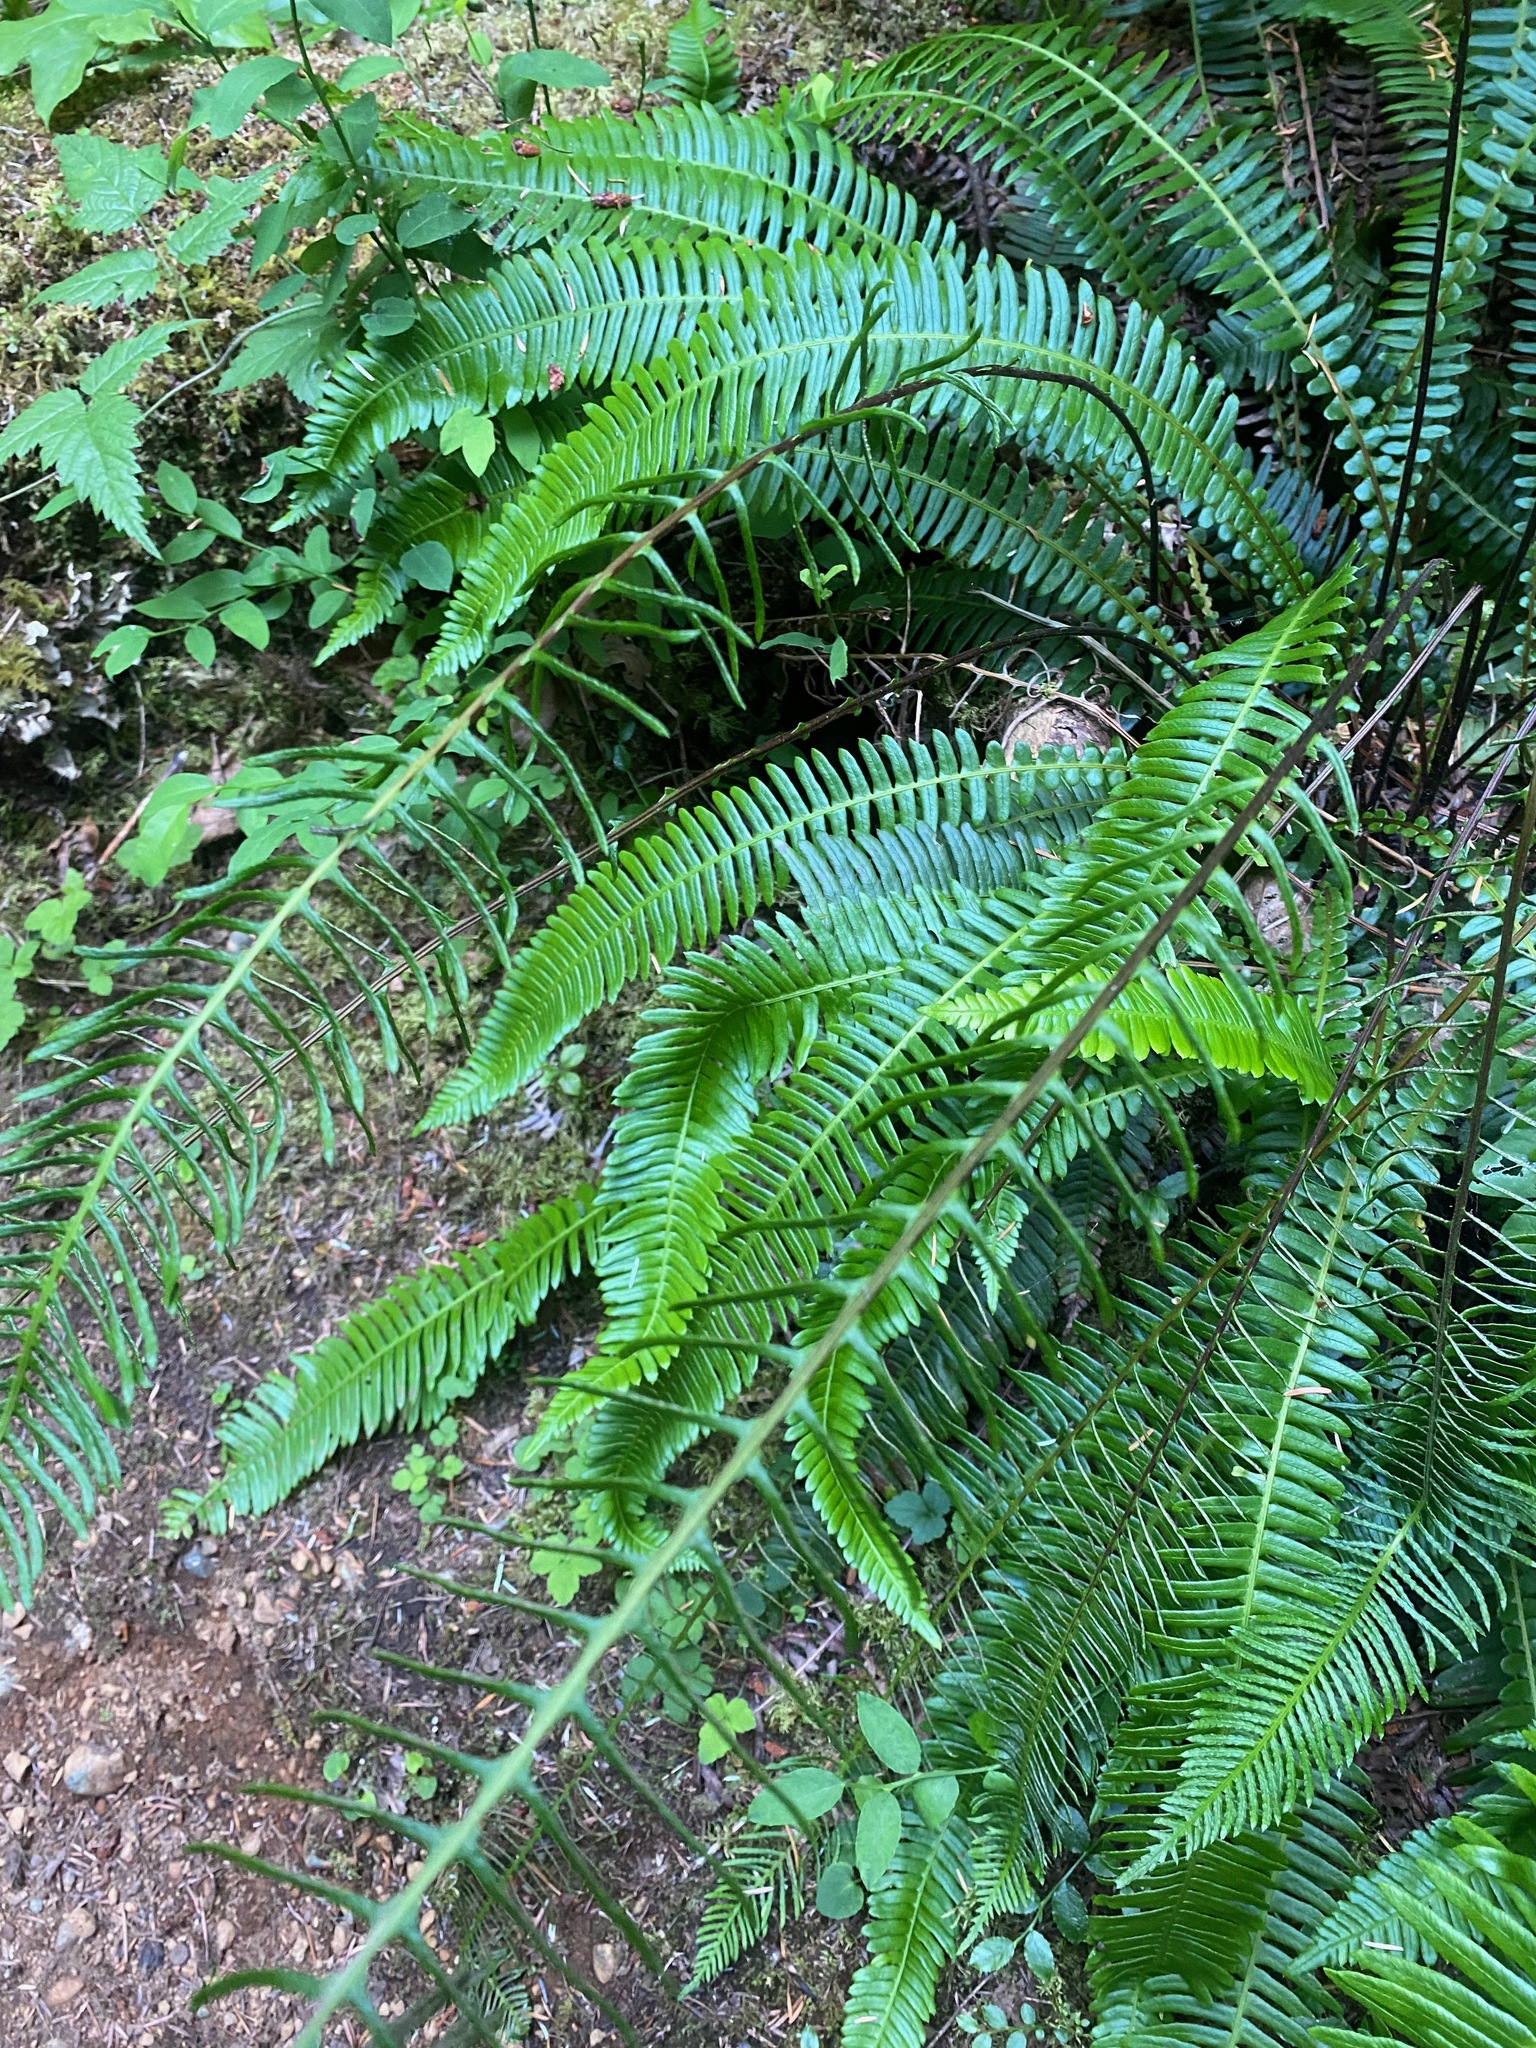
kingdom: Plantae
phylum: Tracheophyta
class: Polypodiopsida
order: Polypodiales
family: Blechnaceae
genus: Struthiopteris
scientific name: Struthiopteris spicant
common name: Deer fern
